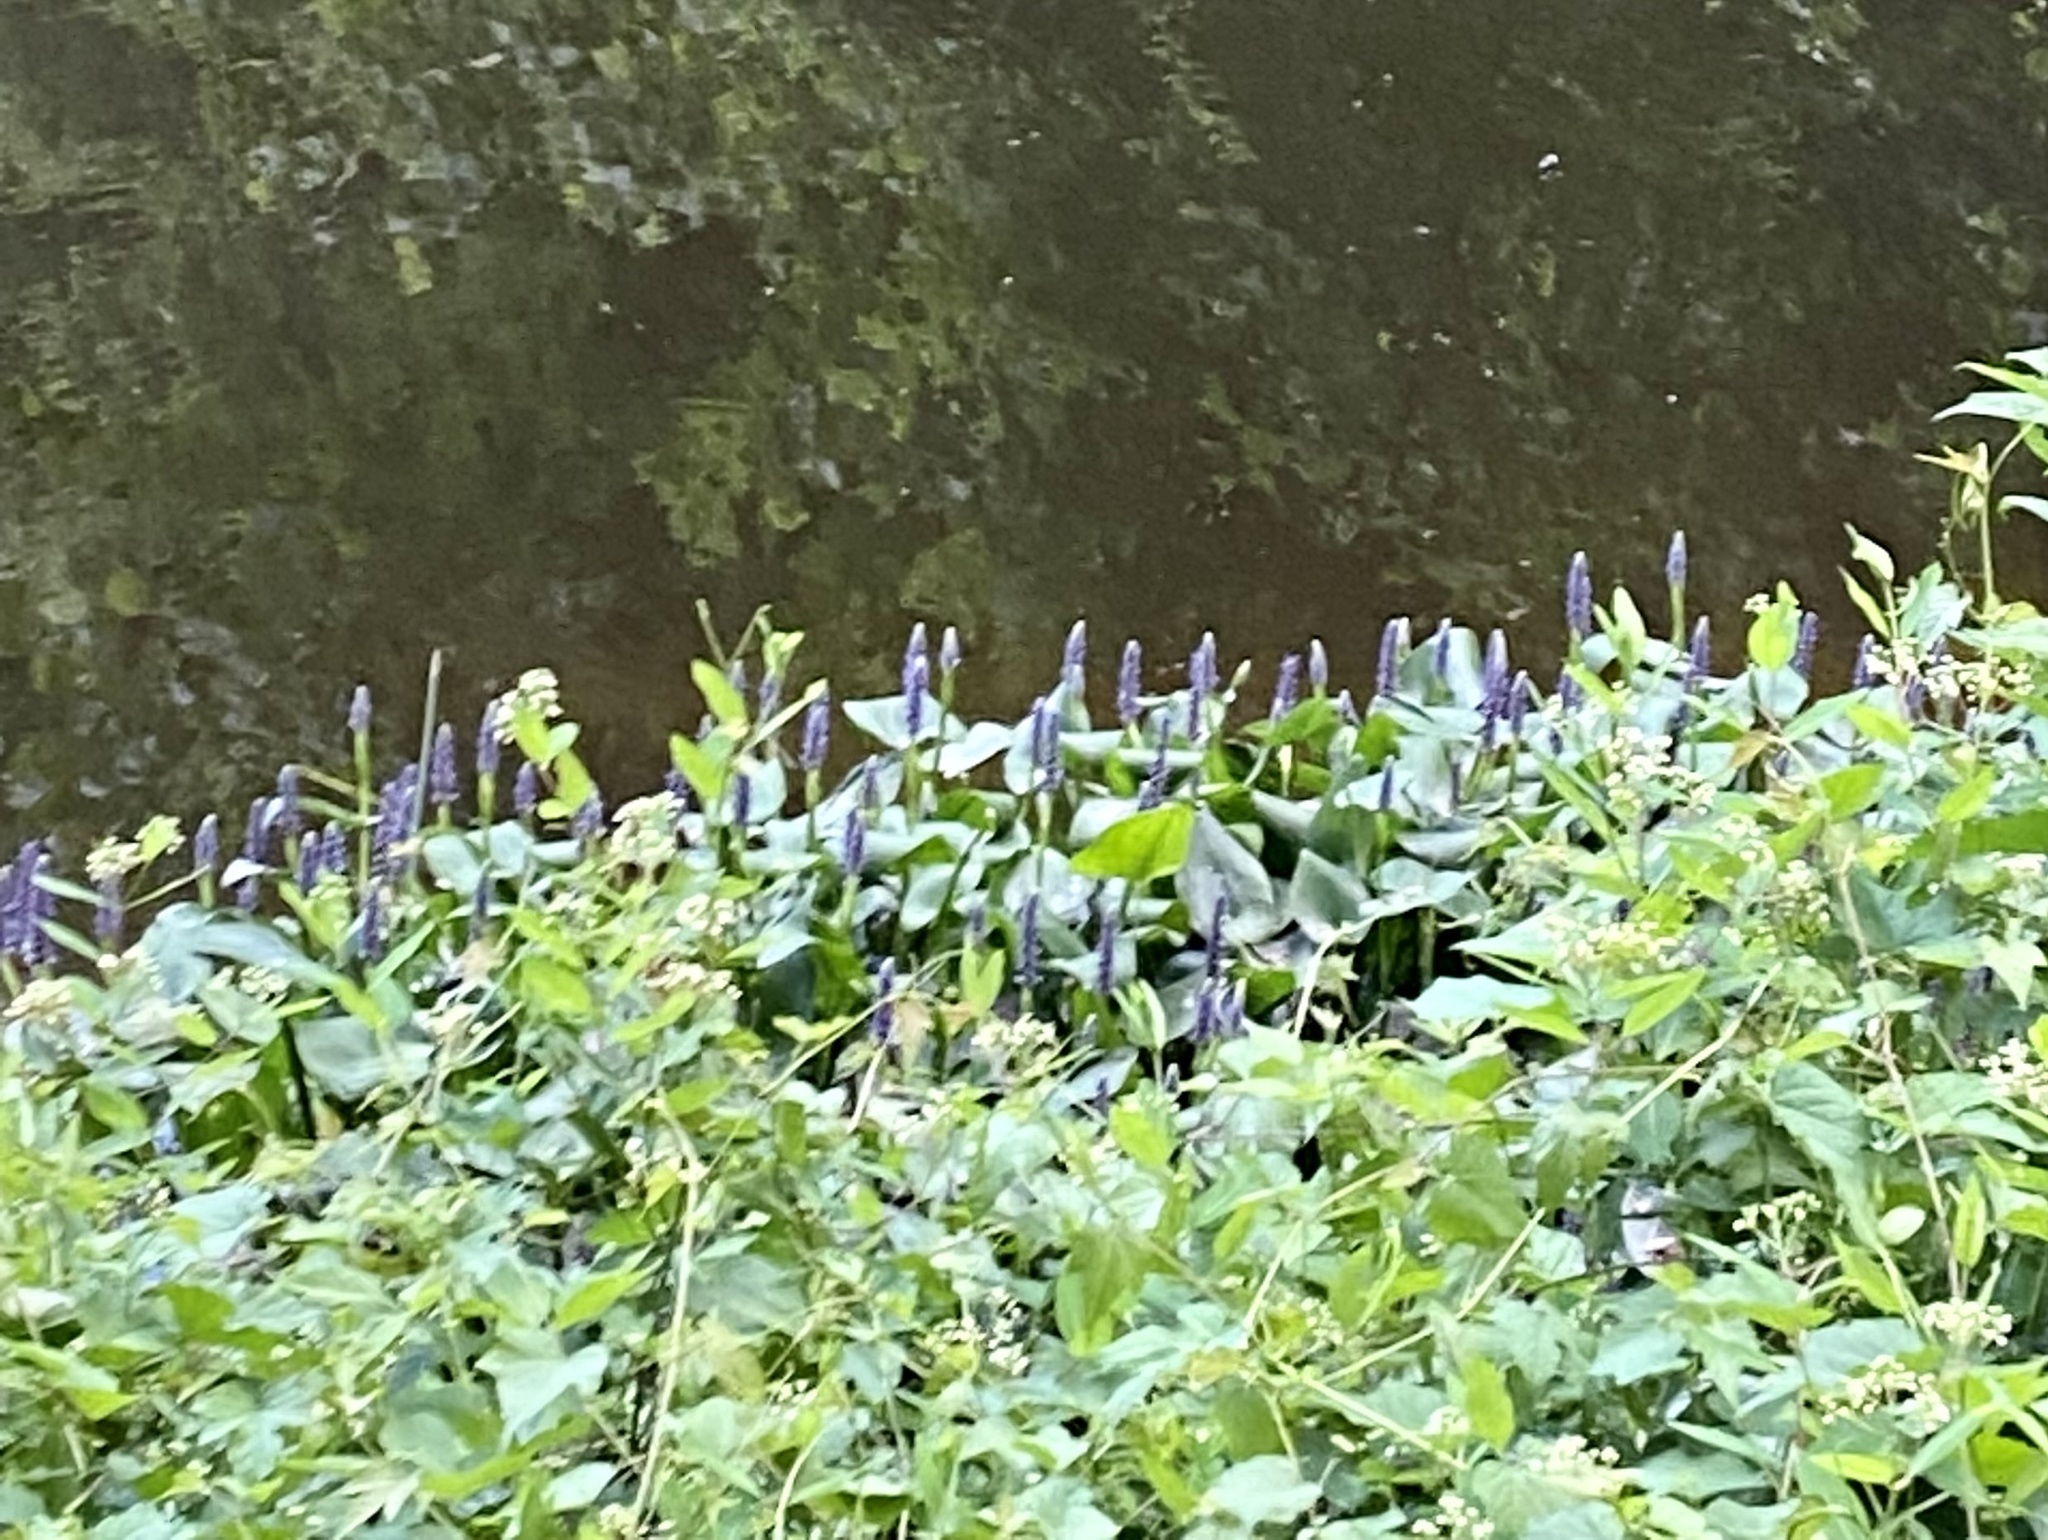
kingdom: Plantae
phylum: Tracheophyta
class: Liliopsida
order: Commelinales
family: Pontederiaceae
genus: Pontederia
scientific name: Pontederia cordata
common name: Pickerelweed
